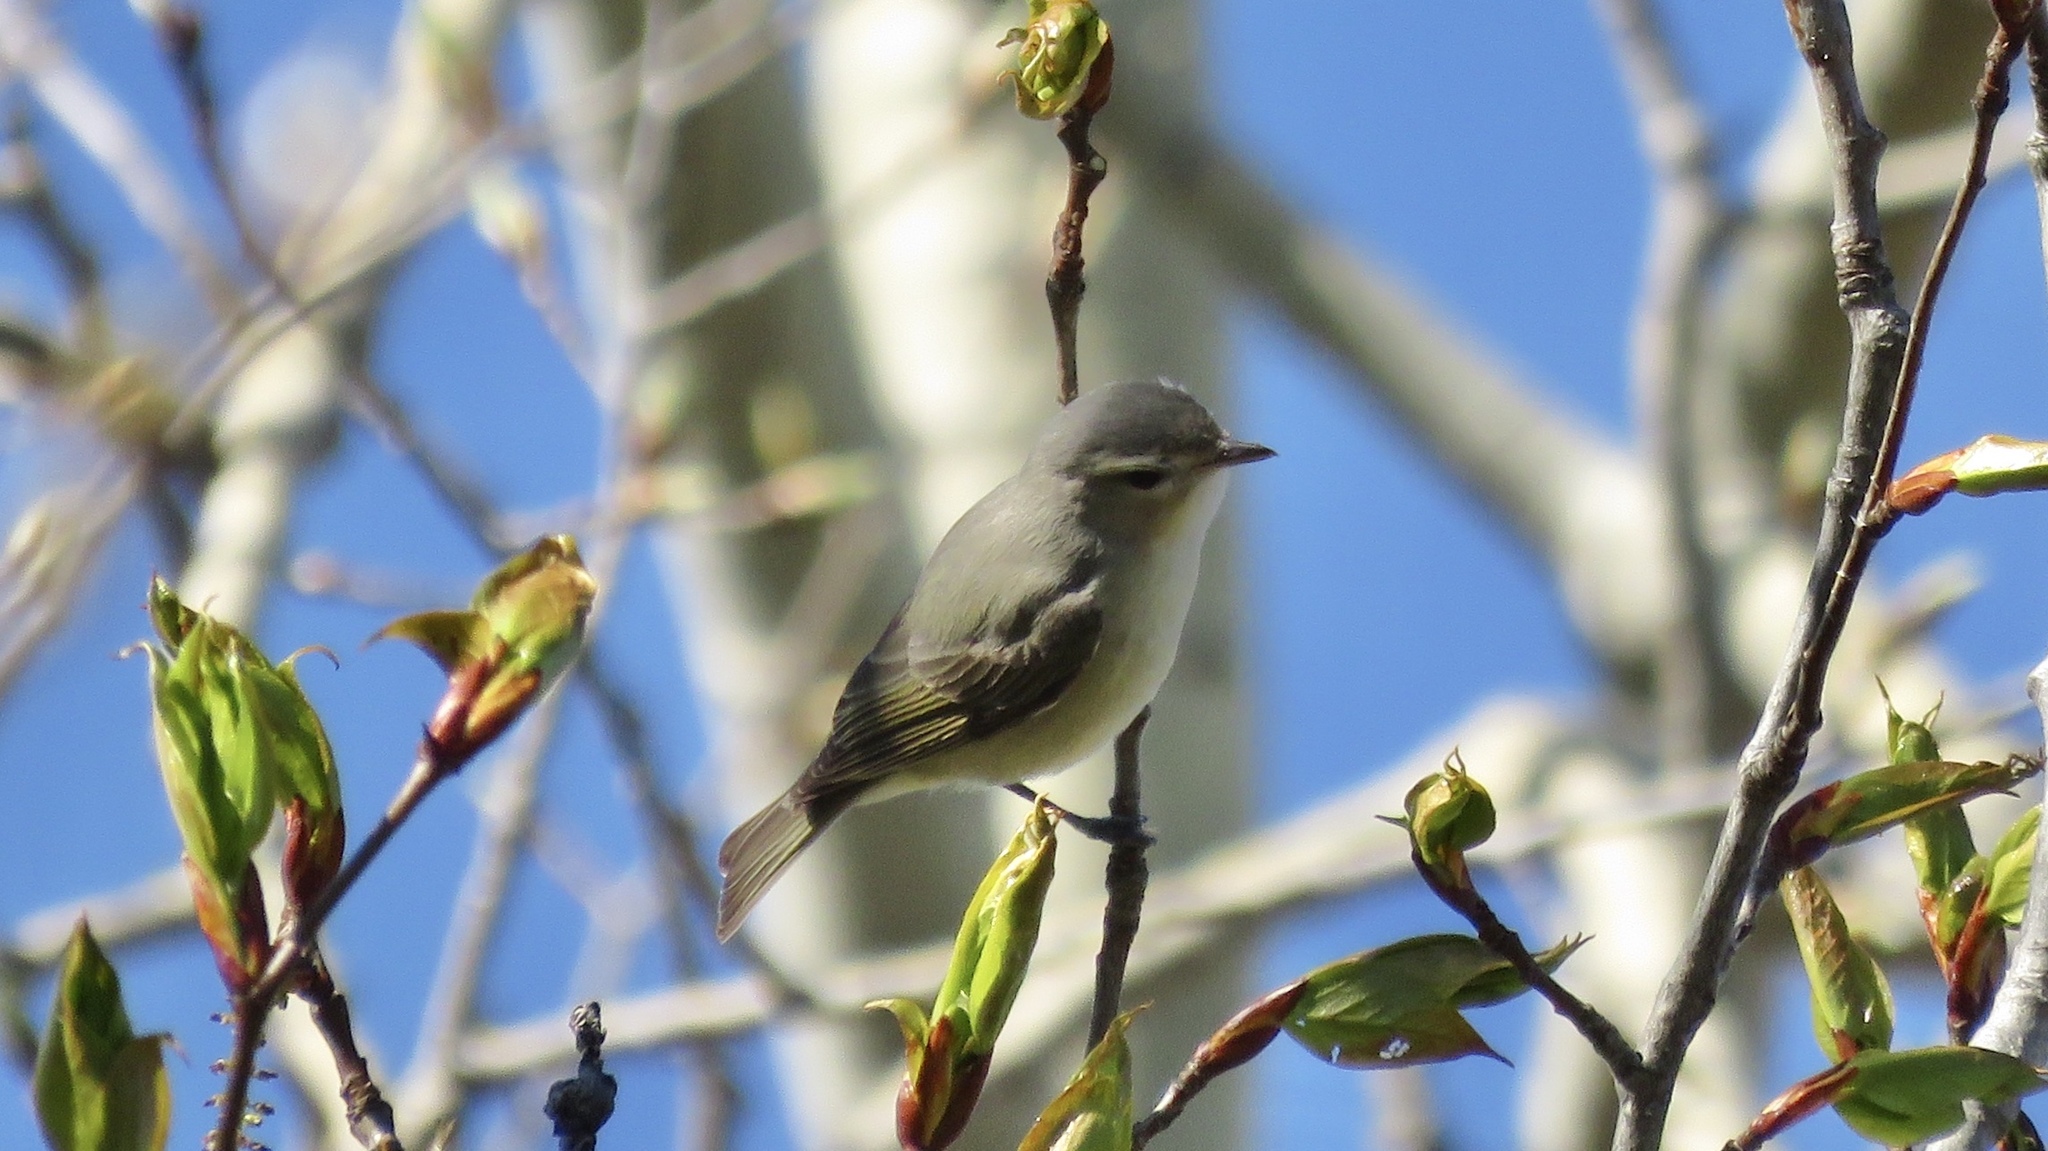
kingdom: Animalia
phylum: Chordata
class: Aves
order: Passeriformes
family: Vireonidae
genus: Vireo
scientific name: Vireo gilvus
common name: Warbling vireo
